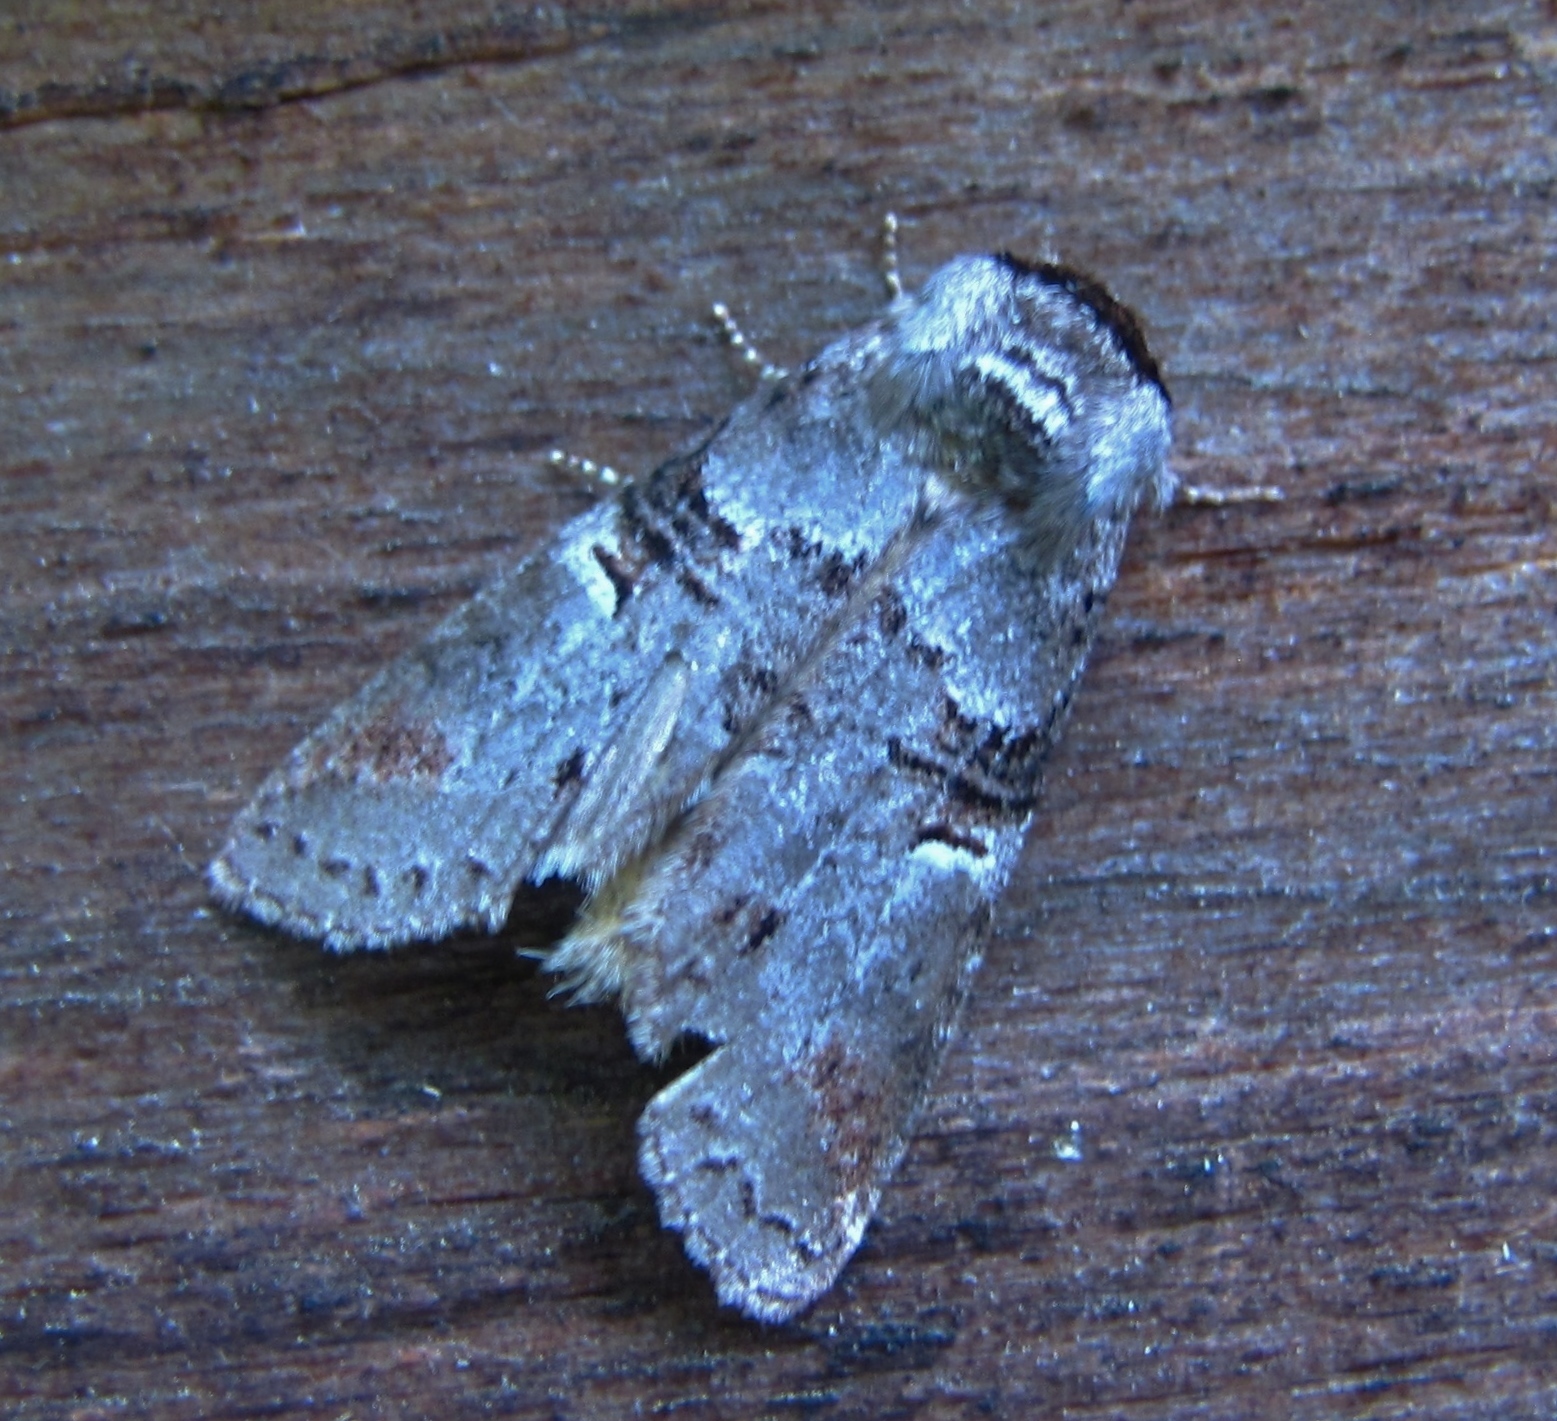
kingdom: Animalia
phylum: Arthropoda
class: Insecta
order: Lepidoptera
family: Notodontidae
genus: Ellida
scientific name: Ellida caniplaga
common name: Linden prominent
